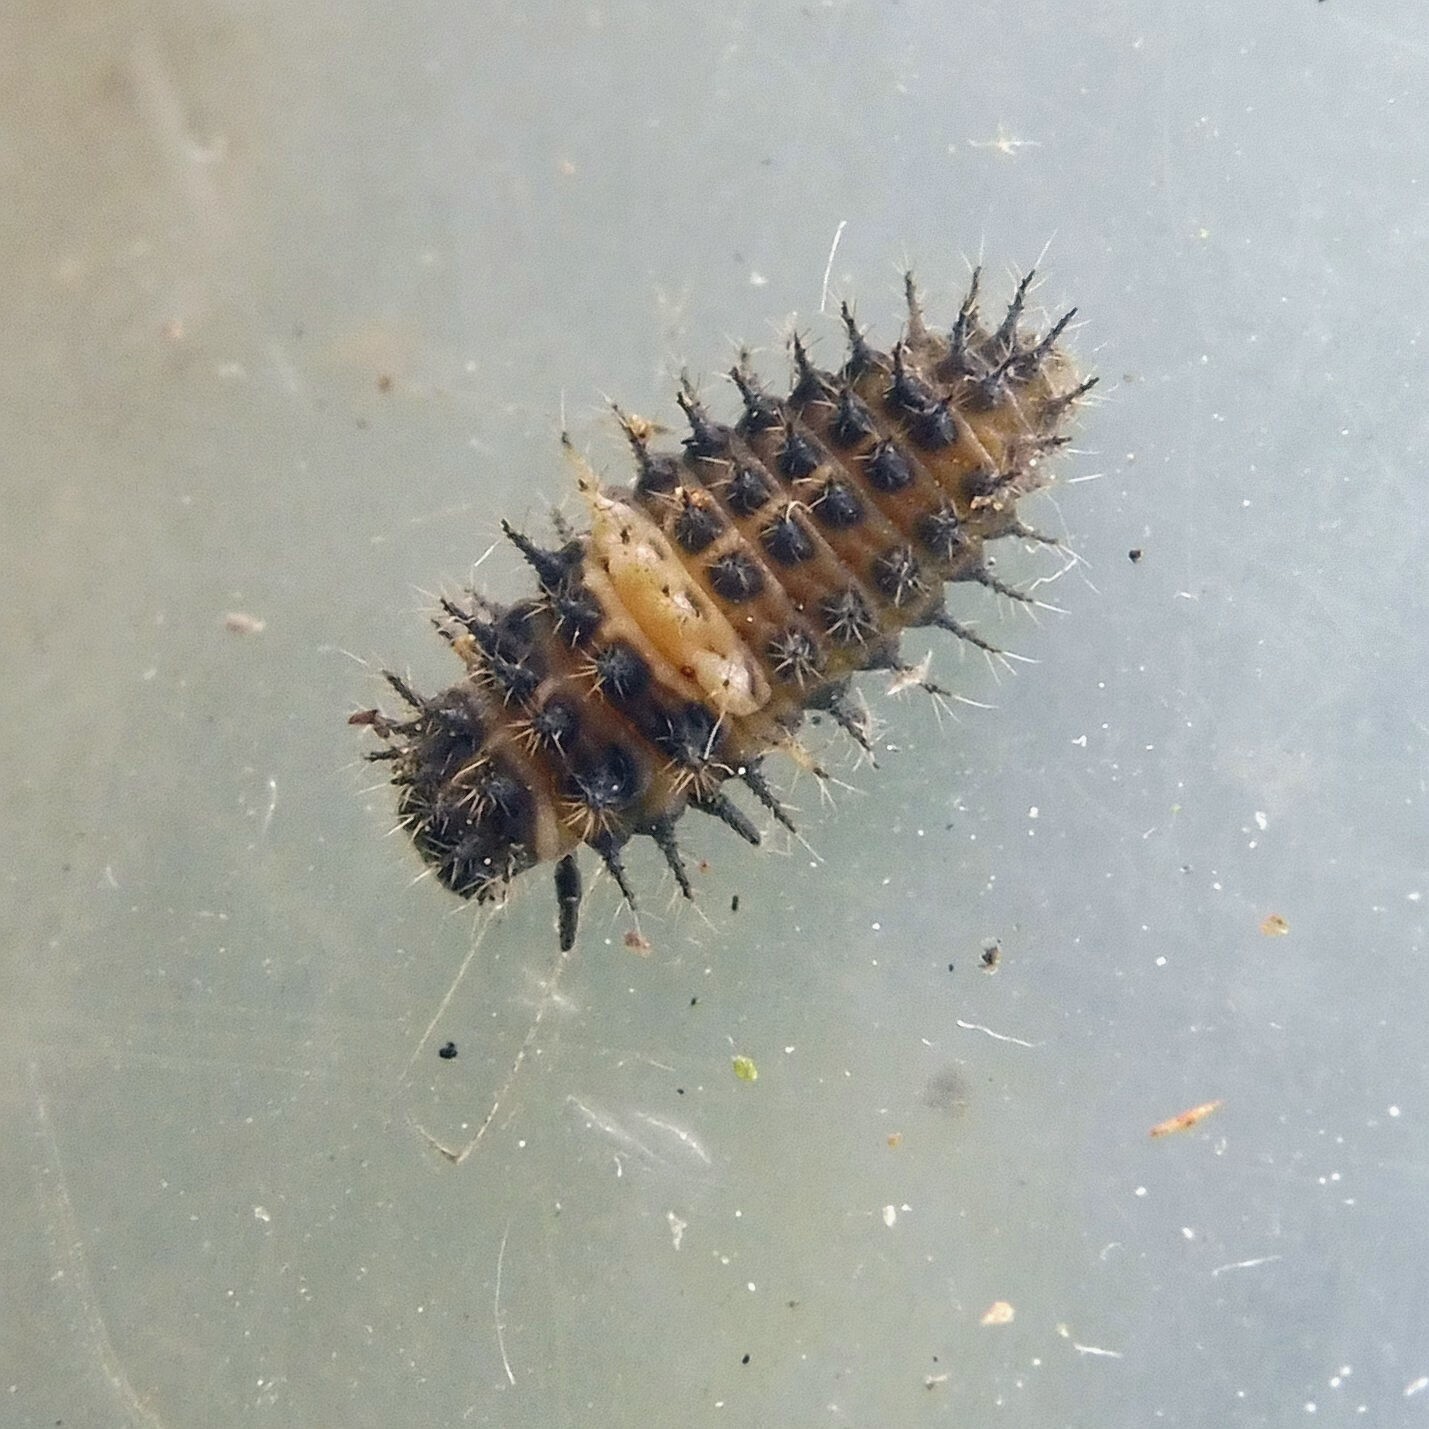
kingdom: Animalia
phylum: Arthropoda
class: Insecta
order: Coleoptera
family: Coccinellidae
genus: Chilocorus
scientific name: Chilocorus bipustulatus
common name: Heather ladybird
